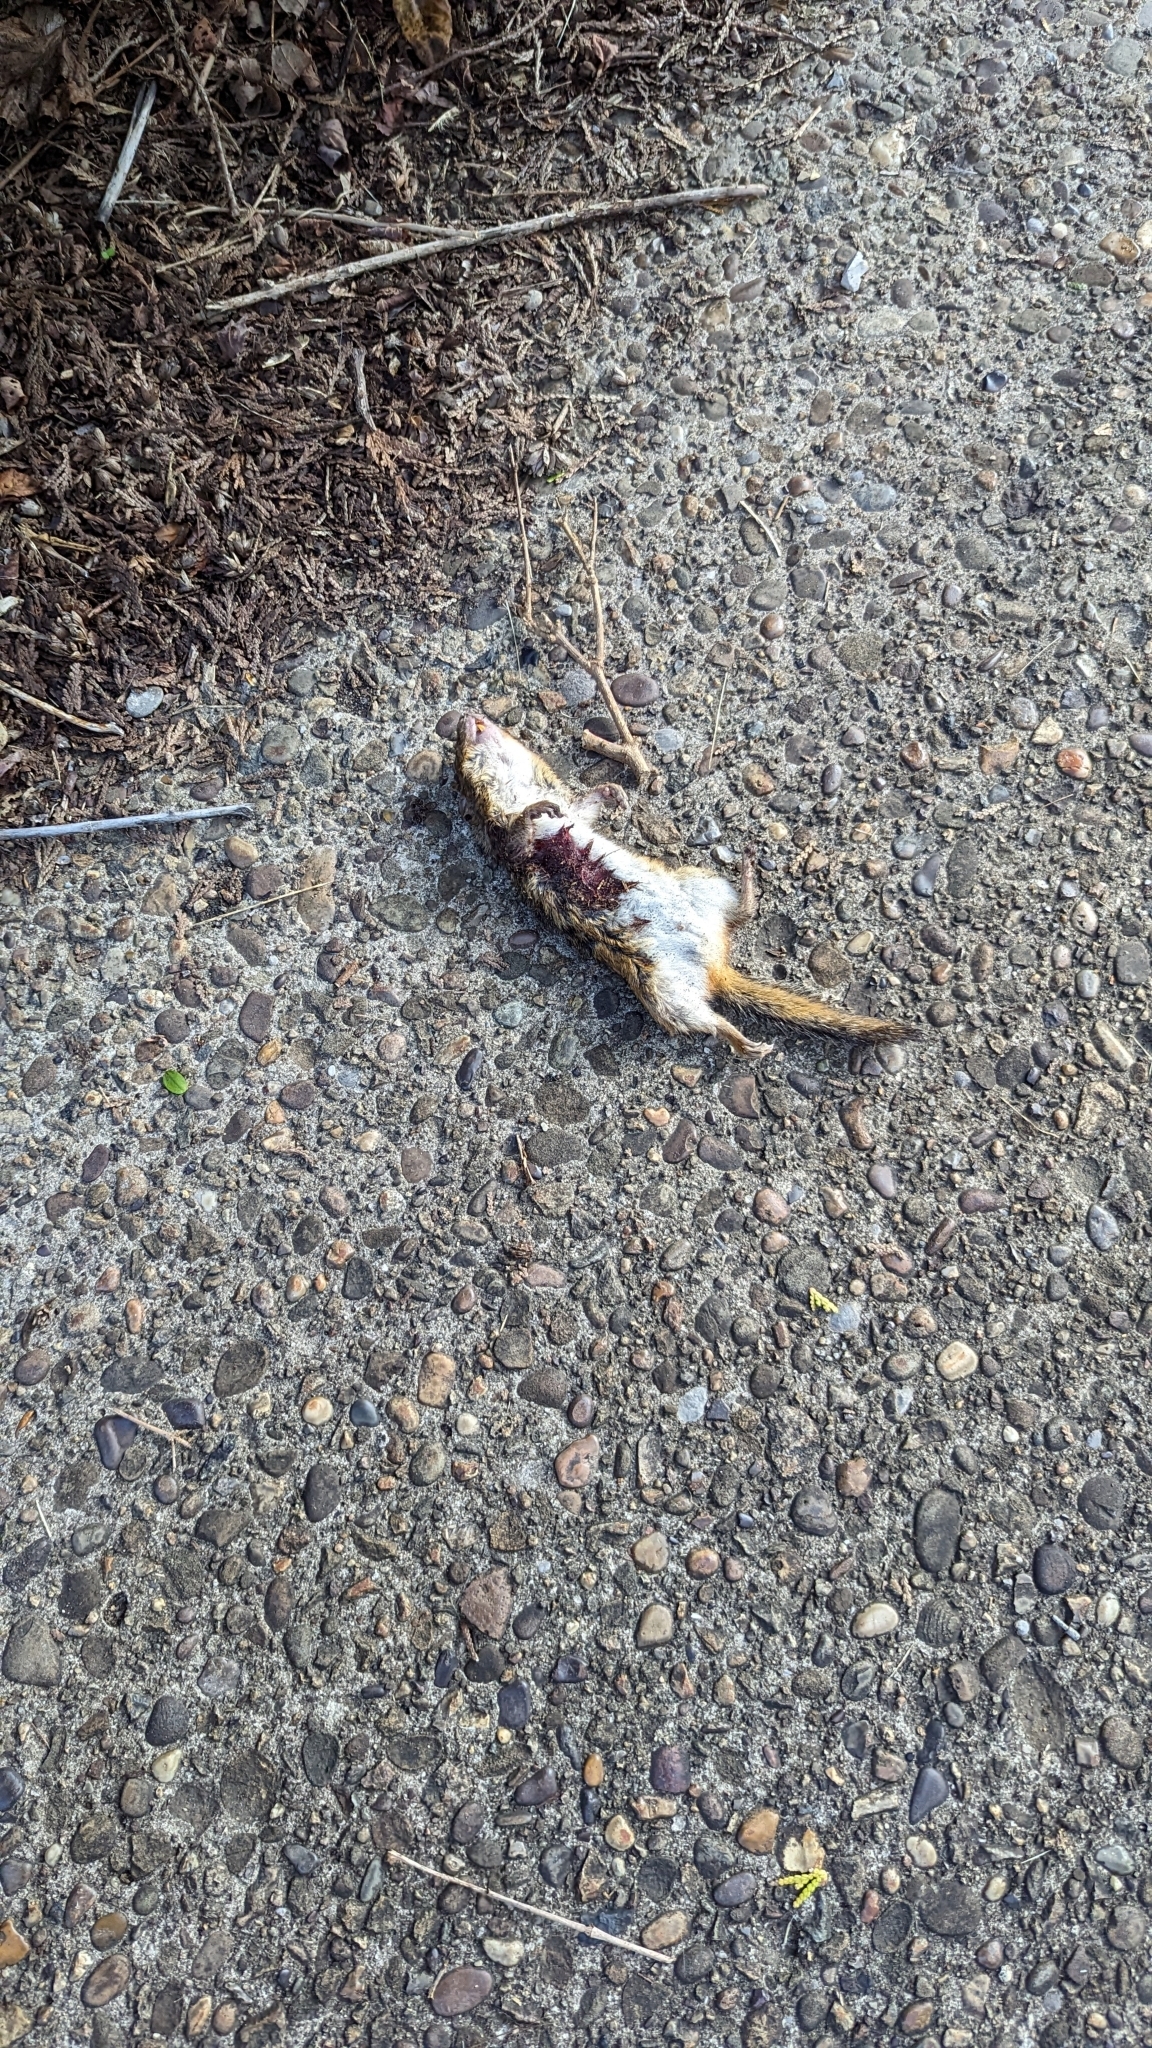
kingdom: Animalia
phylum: Chordata
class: Mammalia
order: Rodentia
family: Sciuridae
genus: Tamias
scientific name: Tamias striatus
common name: Eastern chipmunk
